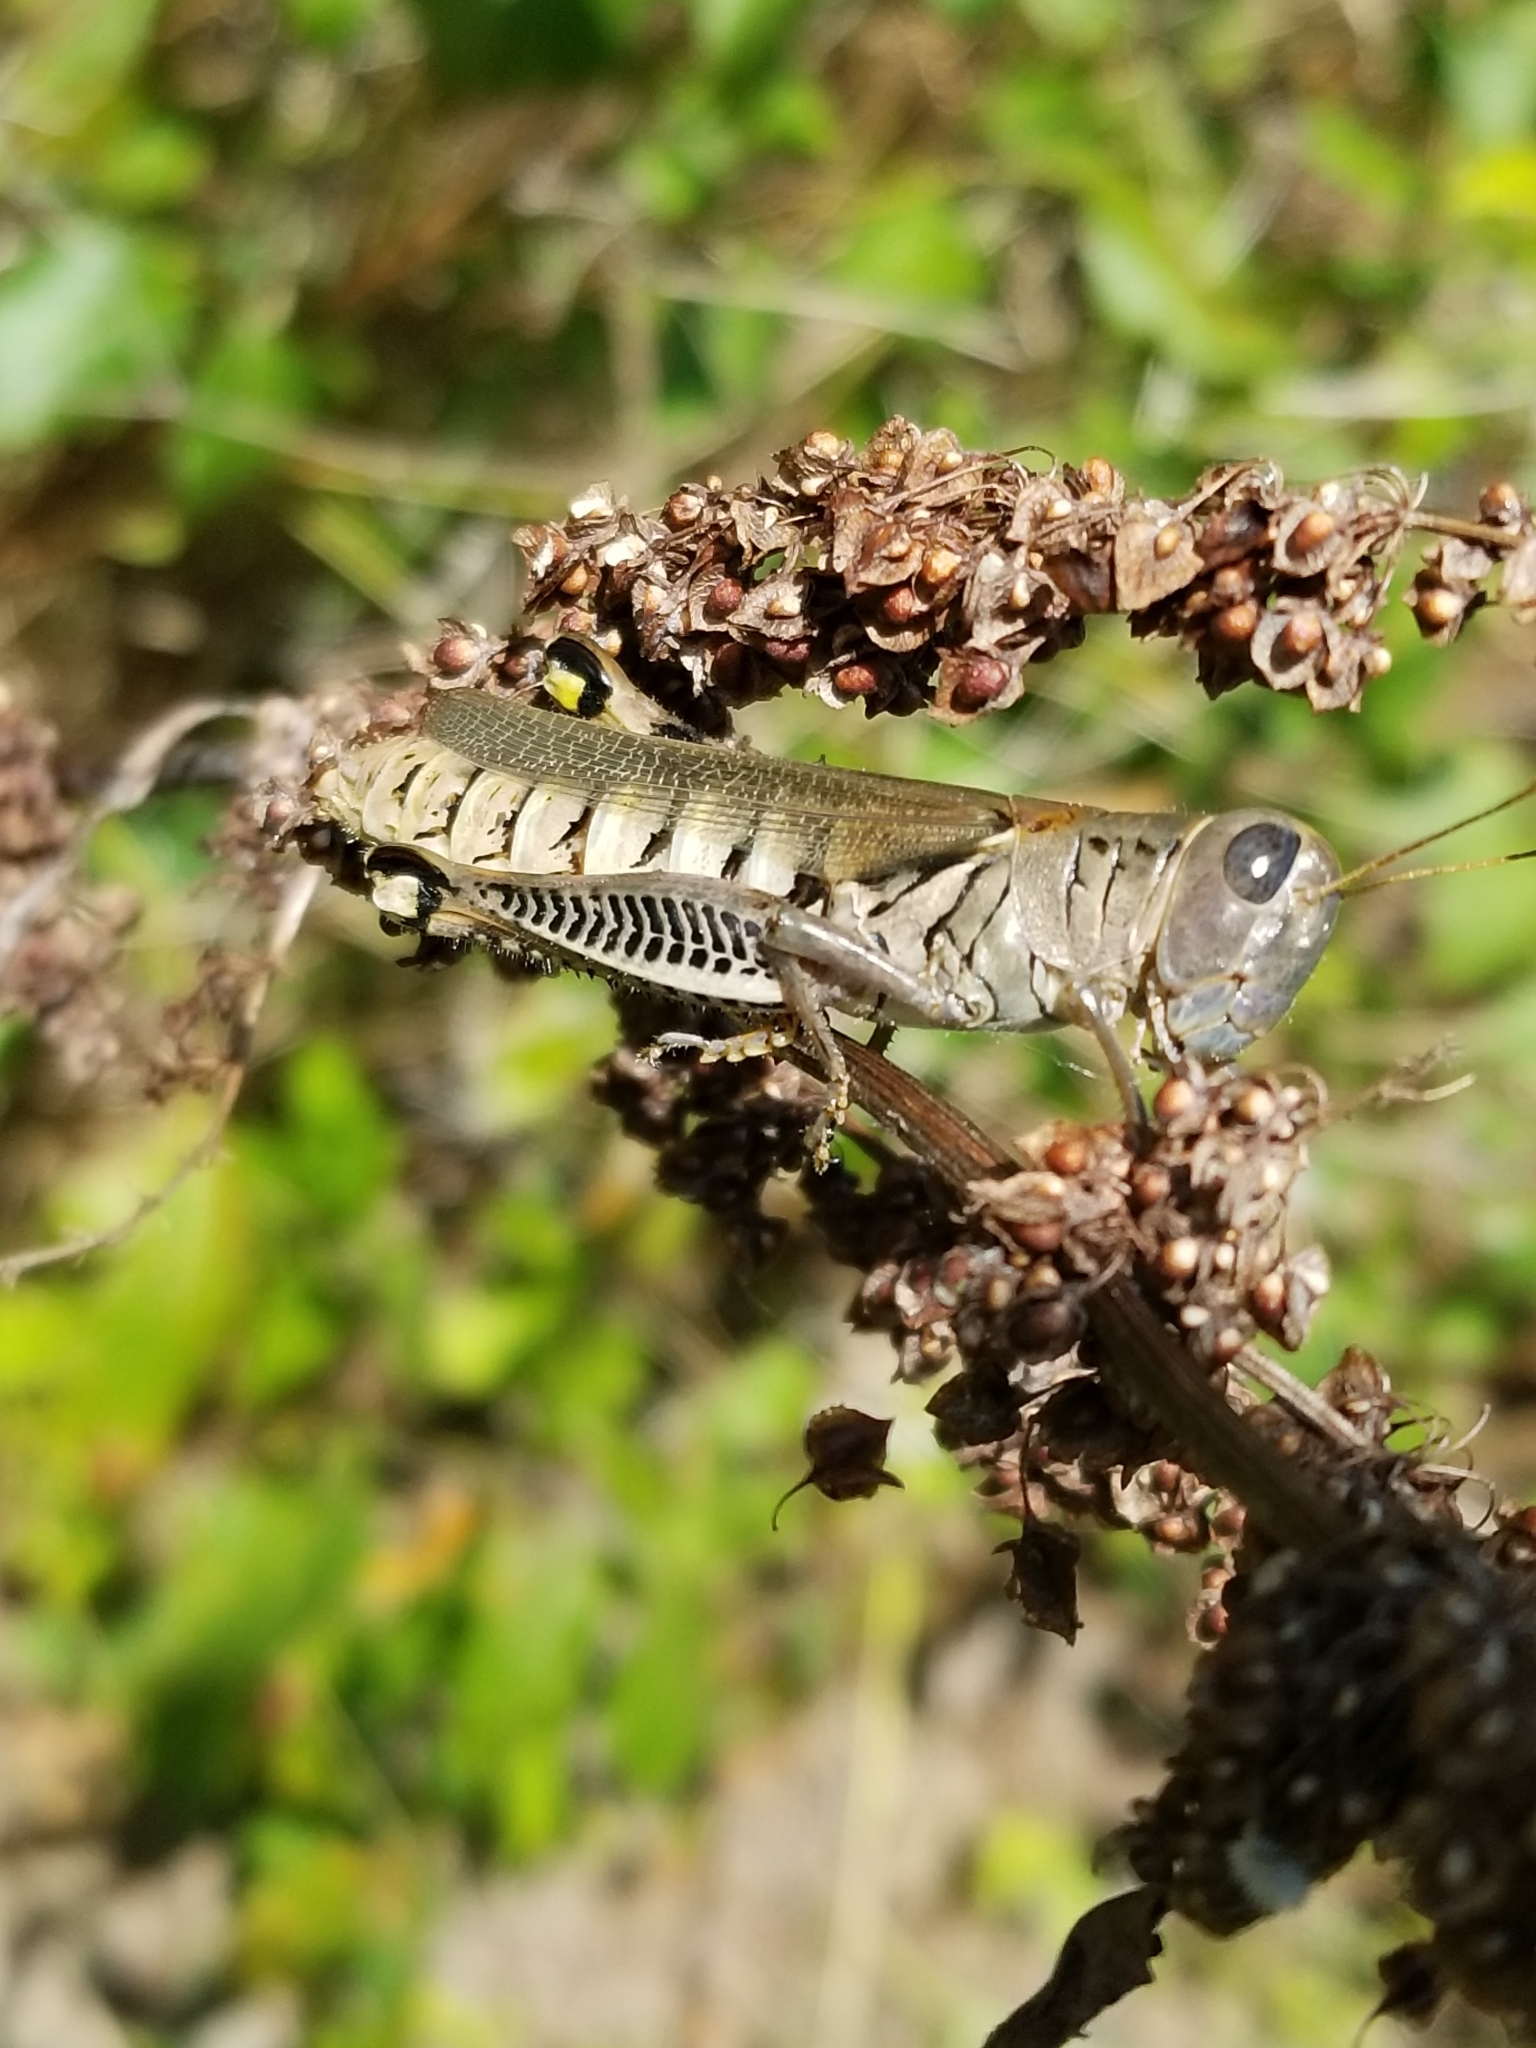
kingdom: Animalia
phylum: Arthropoda
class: Insecta
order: Orthoptera
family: Acrididae
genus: Melanoplus
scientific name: Melanoplus differentialis
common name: Differential grasshopper
